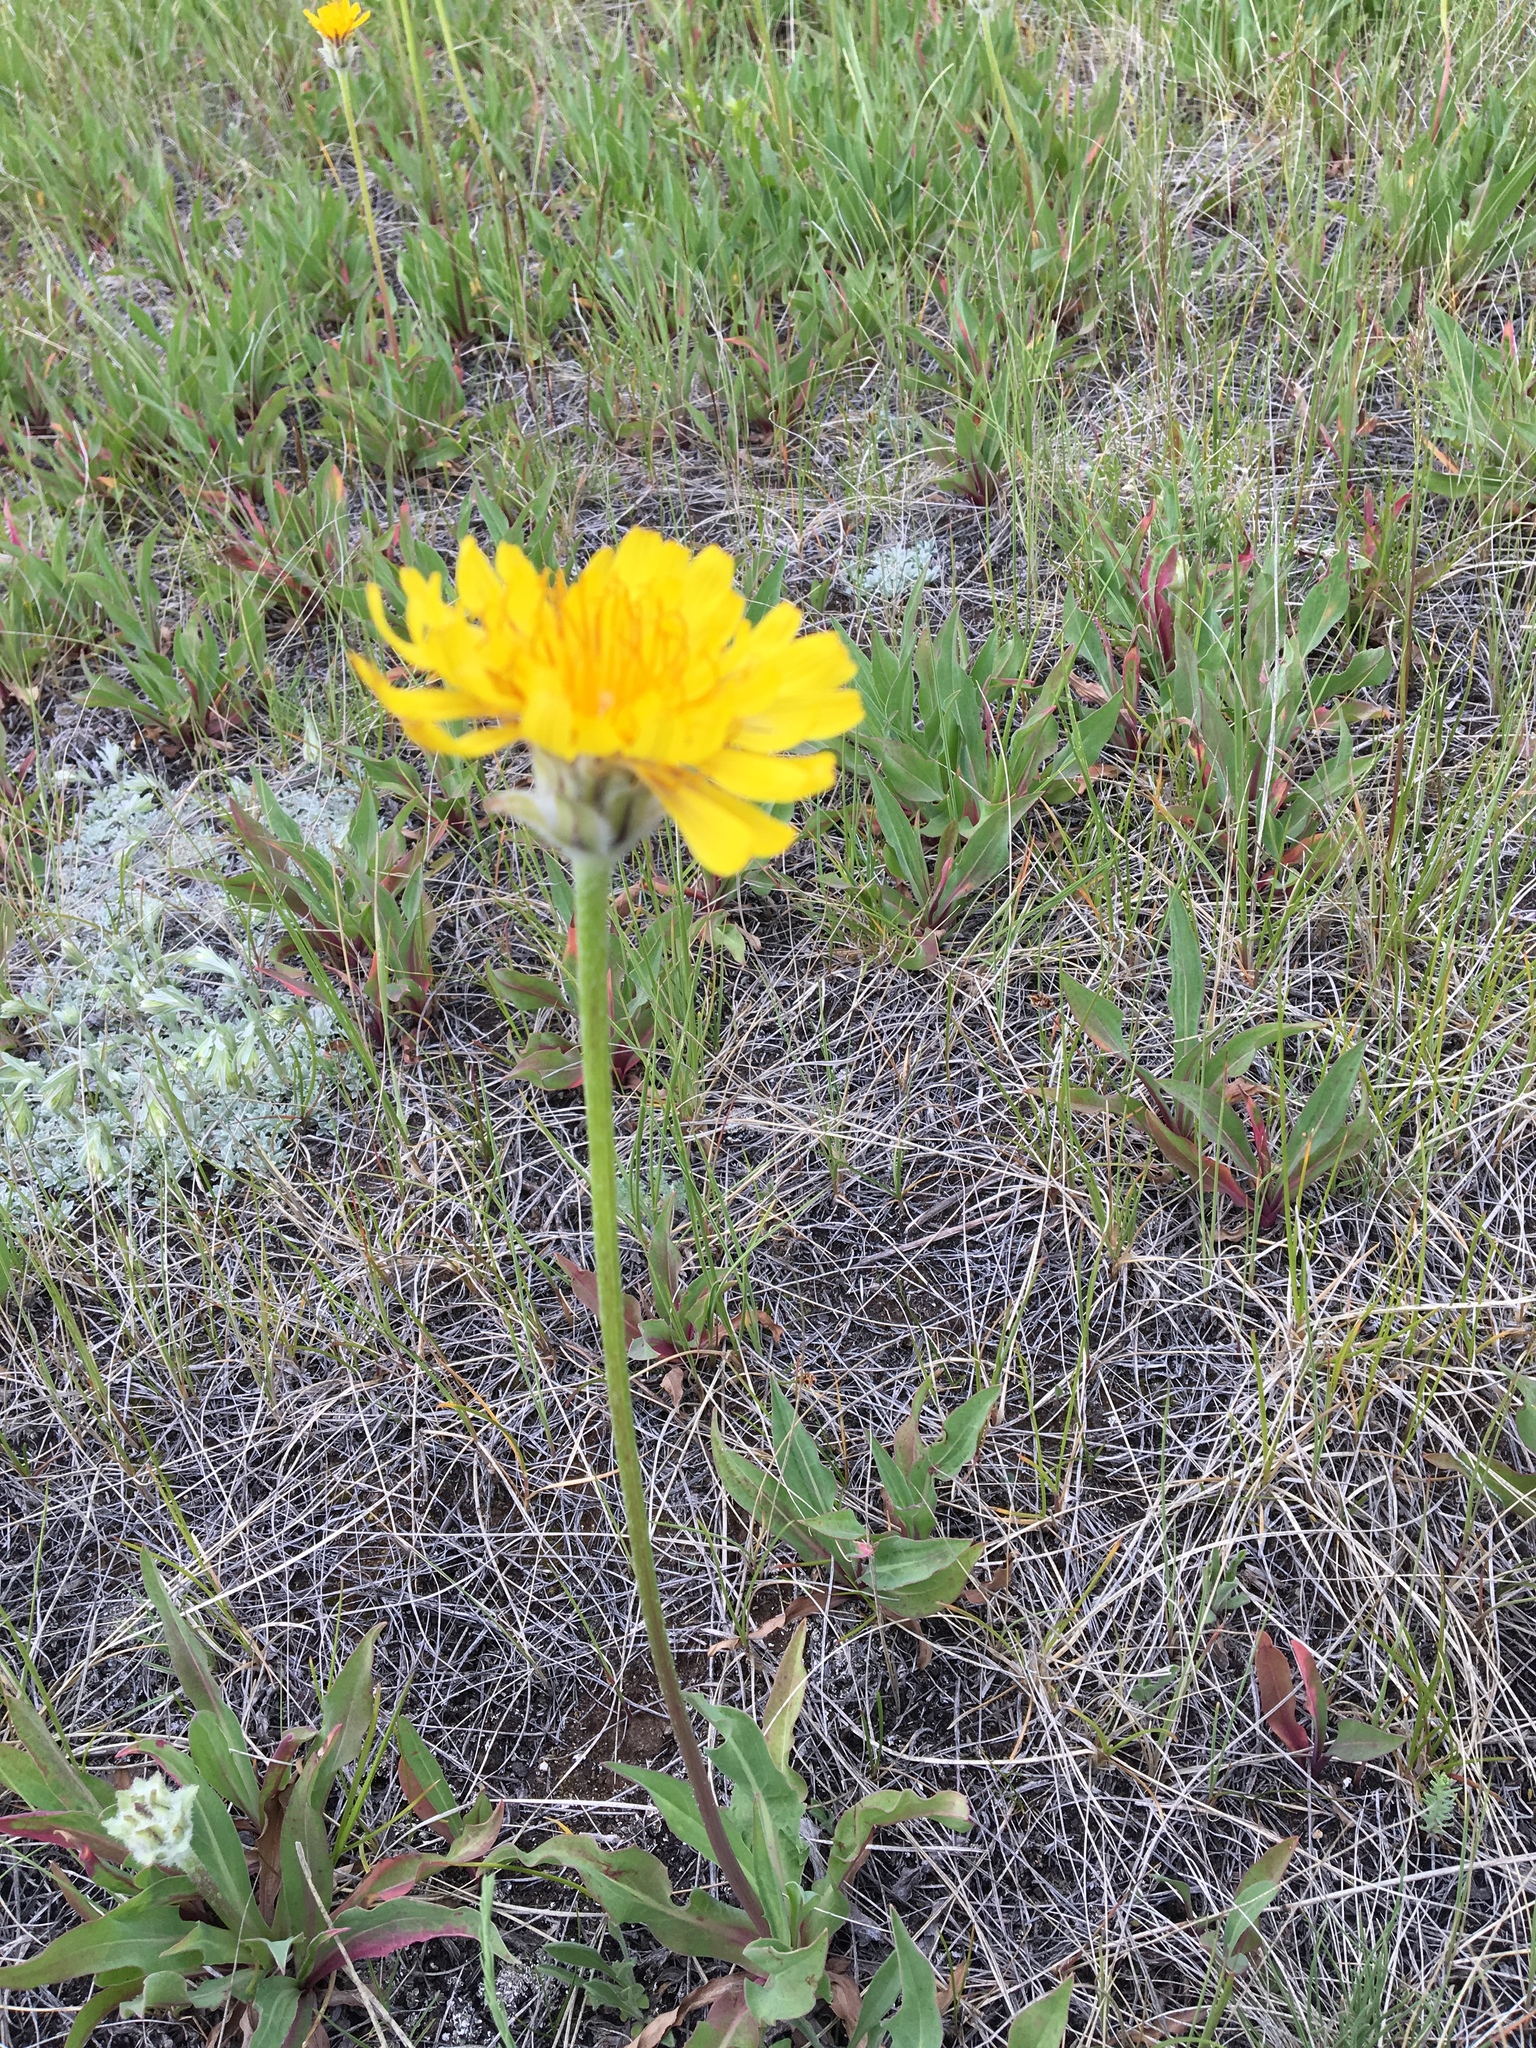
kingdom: Plantae
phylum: Tracheophyta
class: Magnoliopsida
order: Asterales
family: Asteraceae
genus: Agoseris
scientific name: Agoseris glauca
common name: Prairie agoseris
